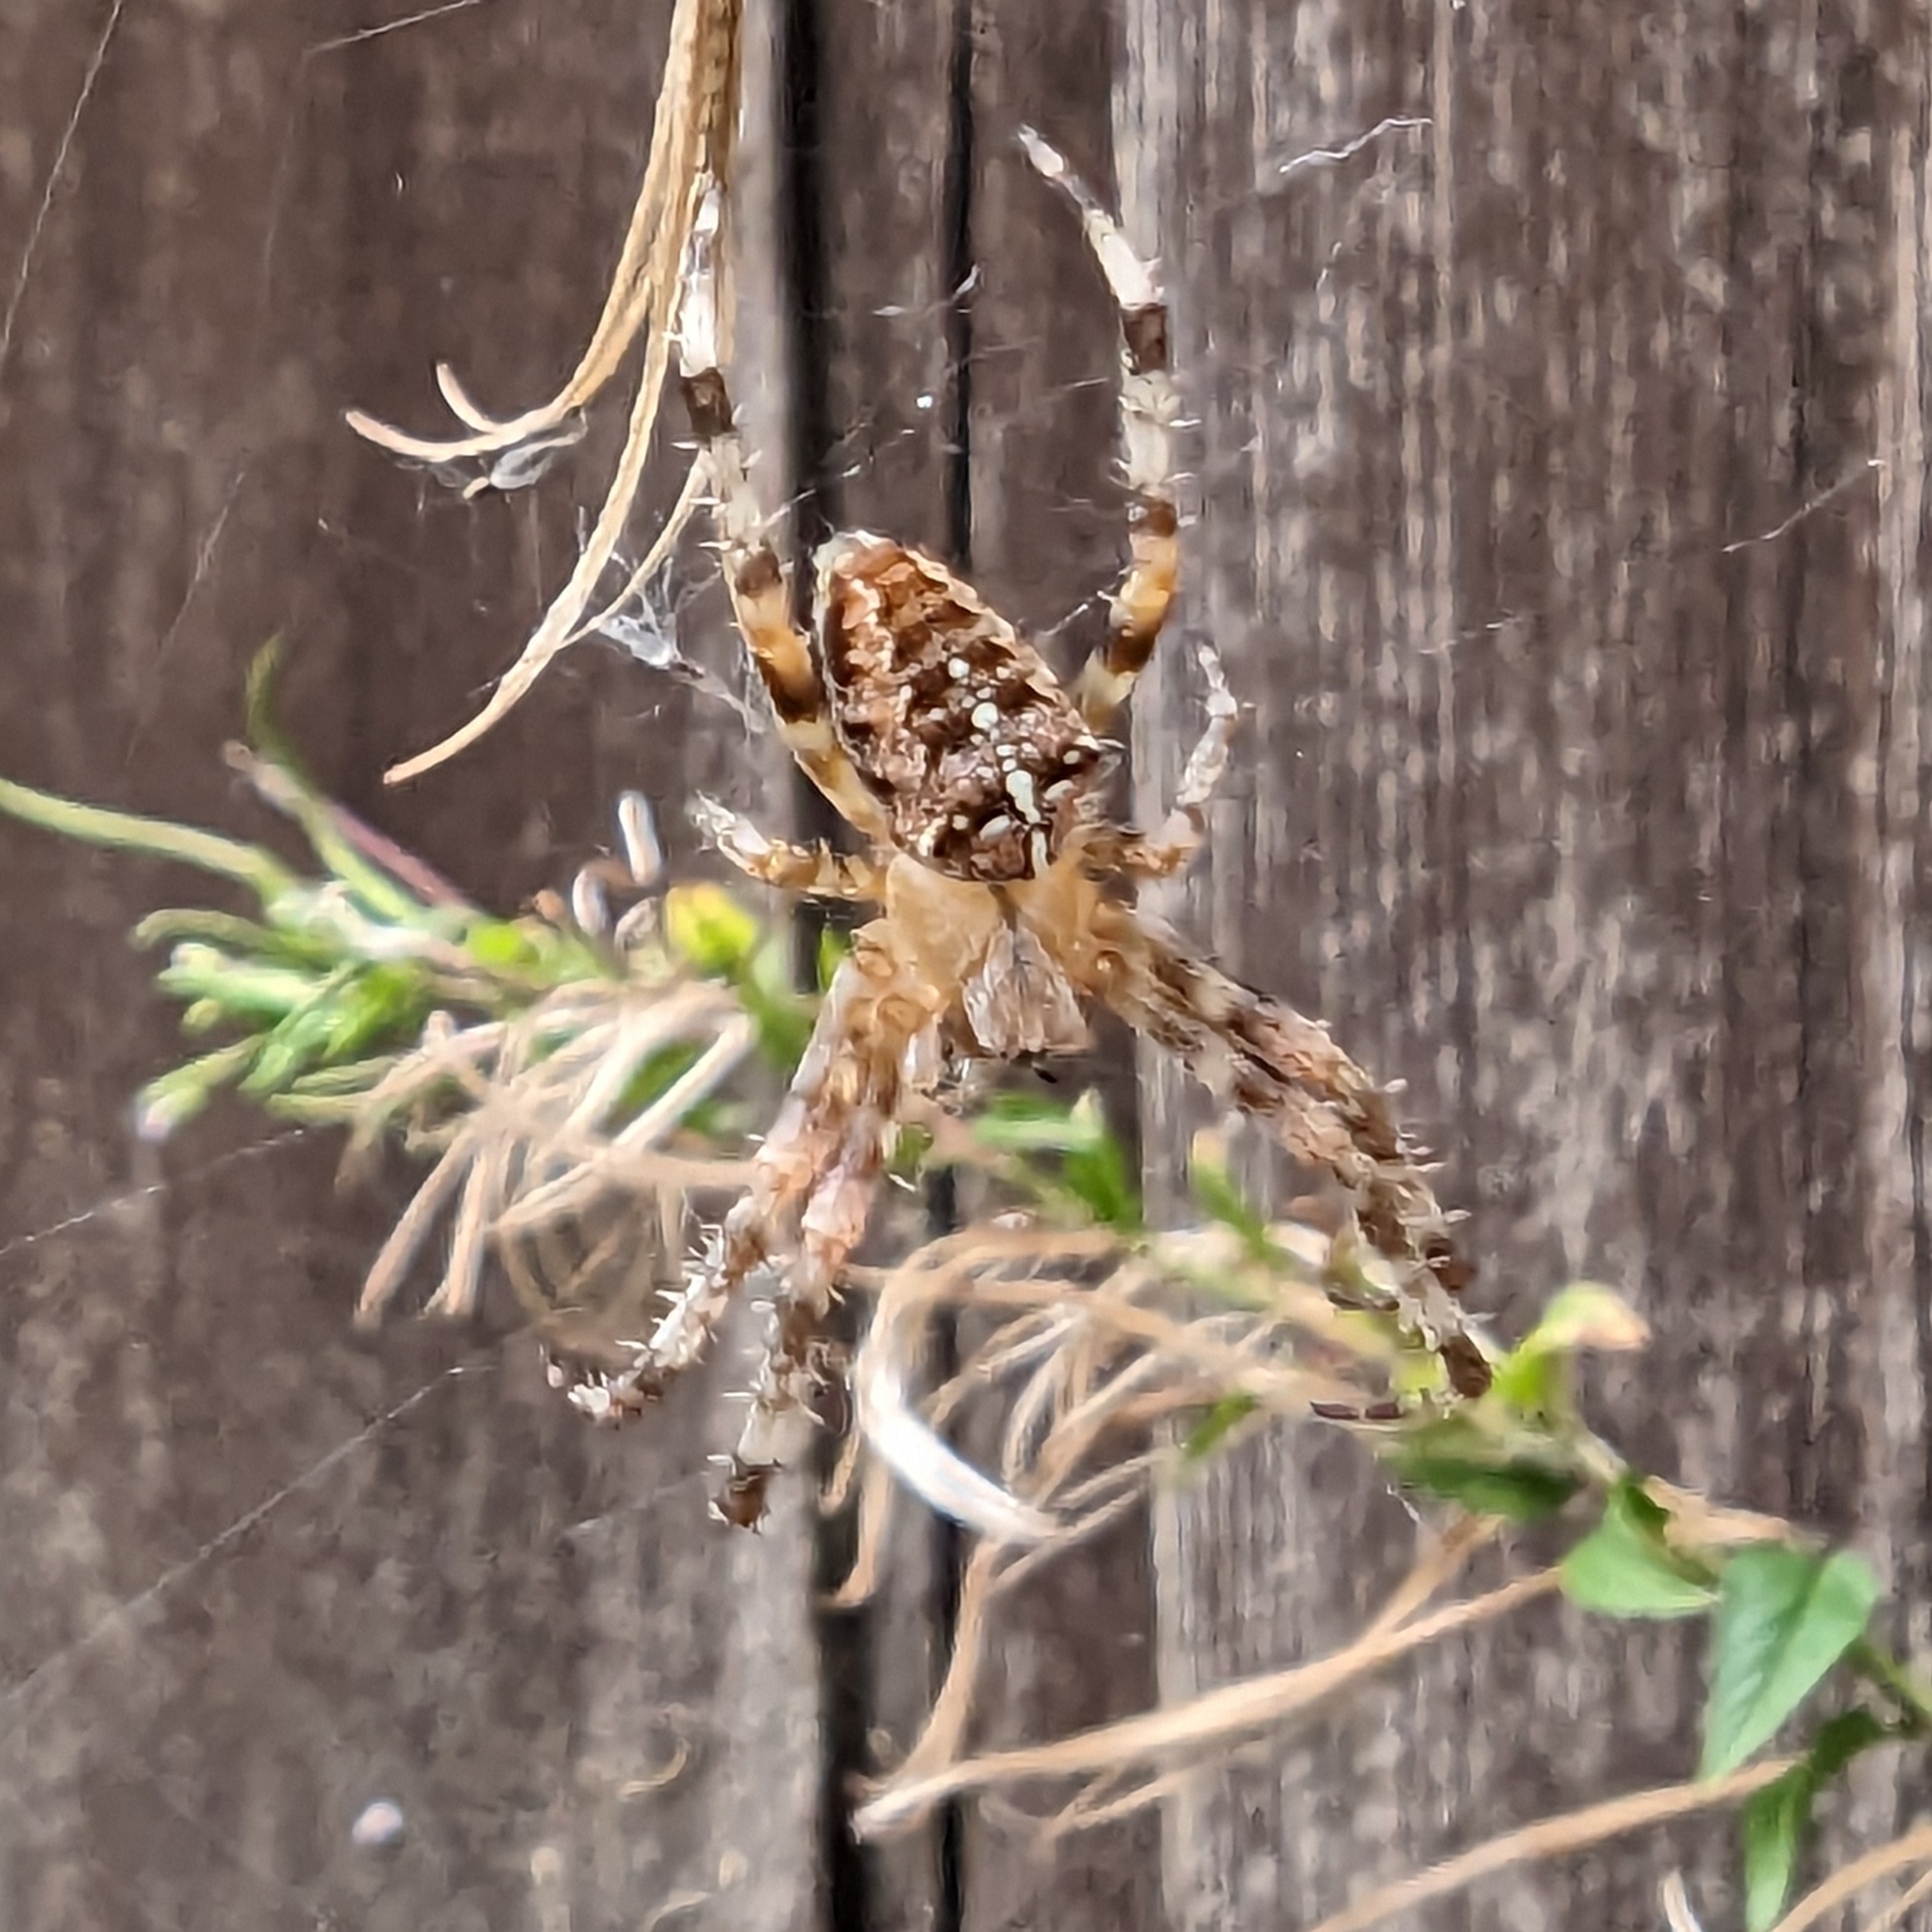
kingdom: Animalia
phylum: Arthropoda
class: Arachnida
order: Araneae
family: Araneidae
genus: Araneus
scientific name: Araneus diadematus
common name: Cross orbweaver
